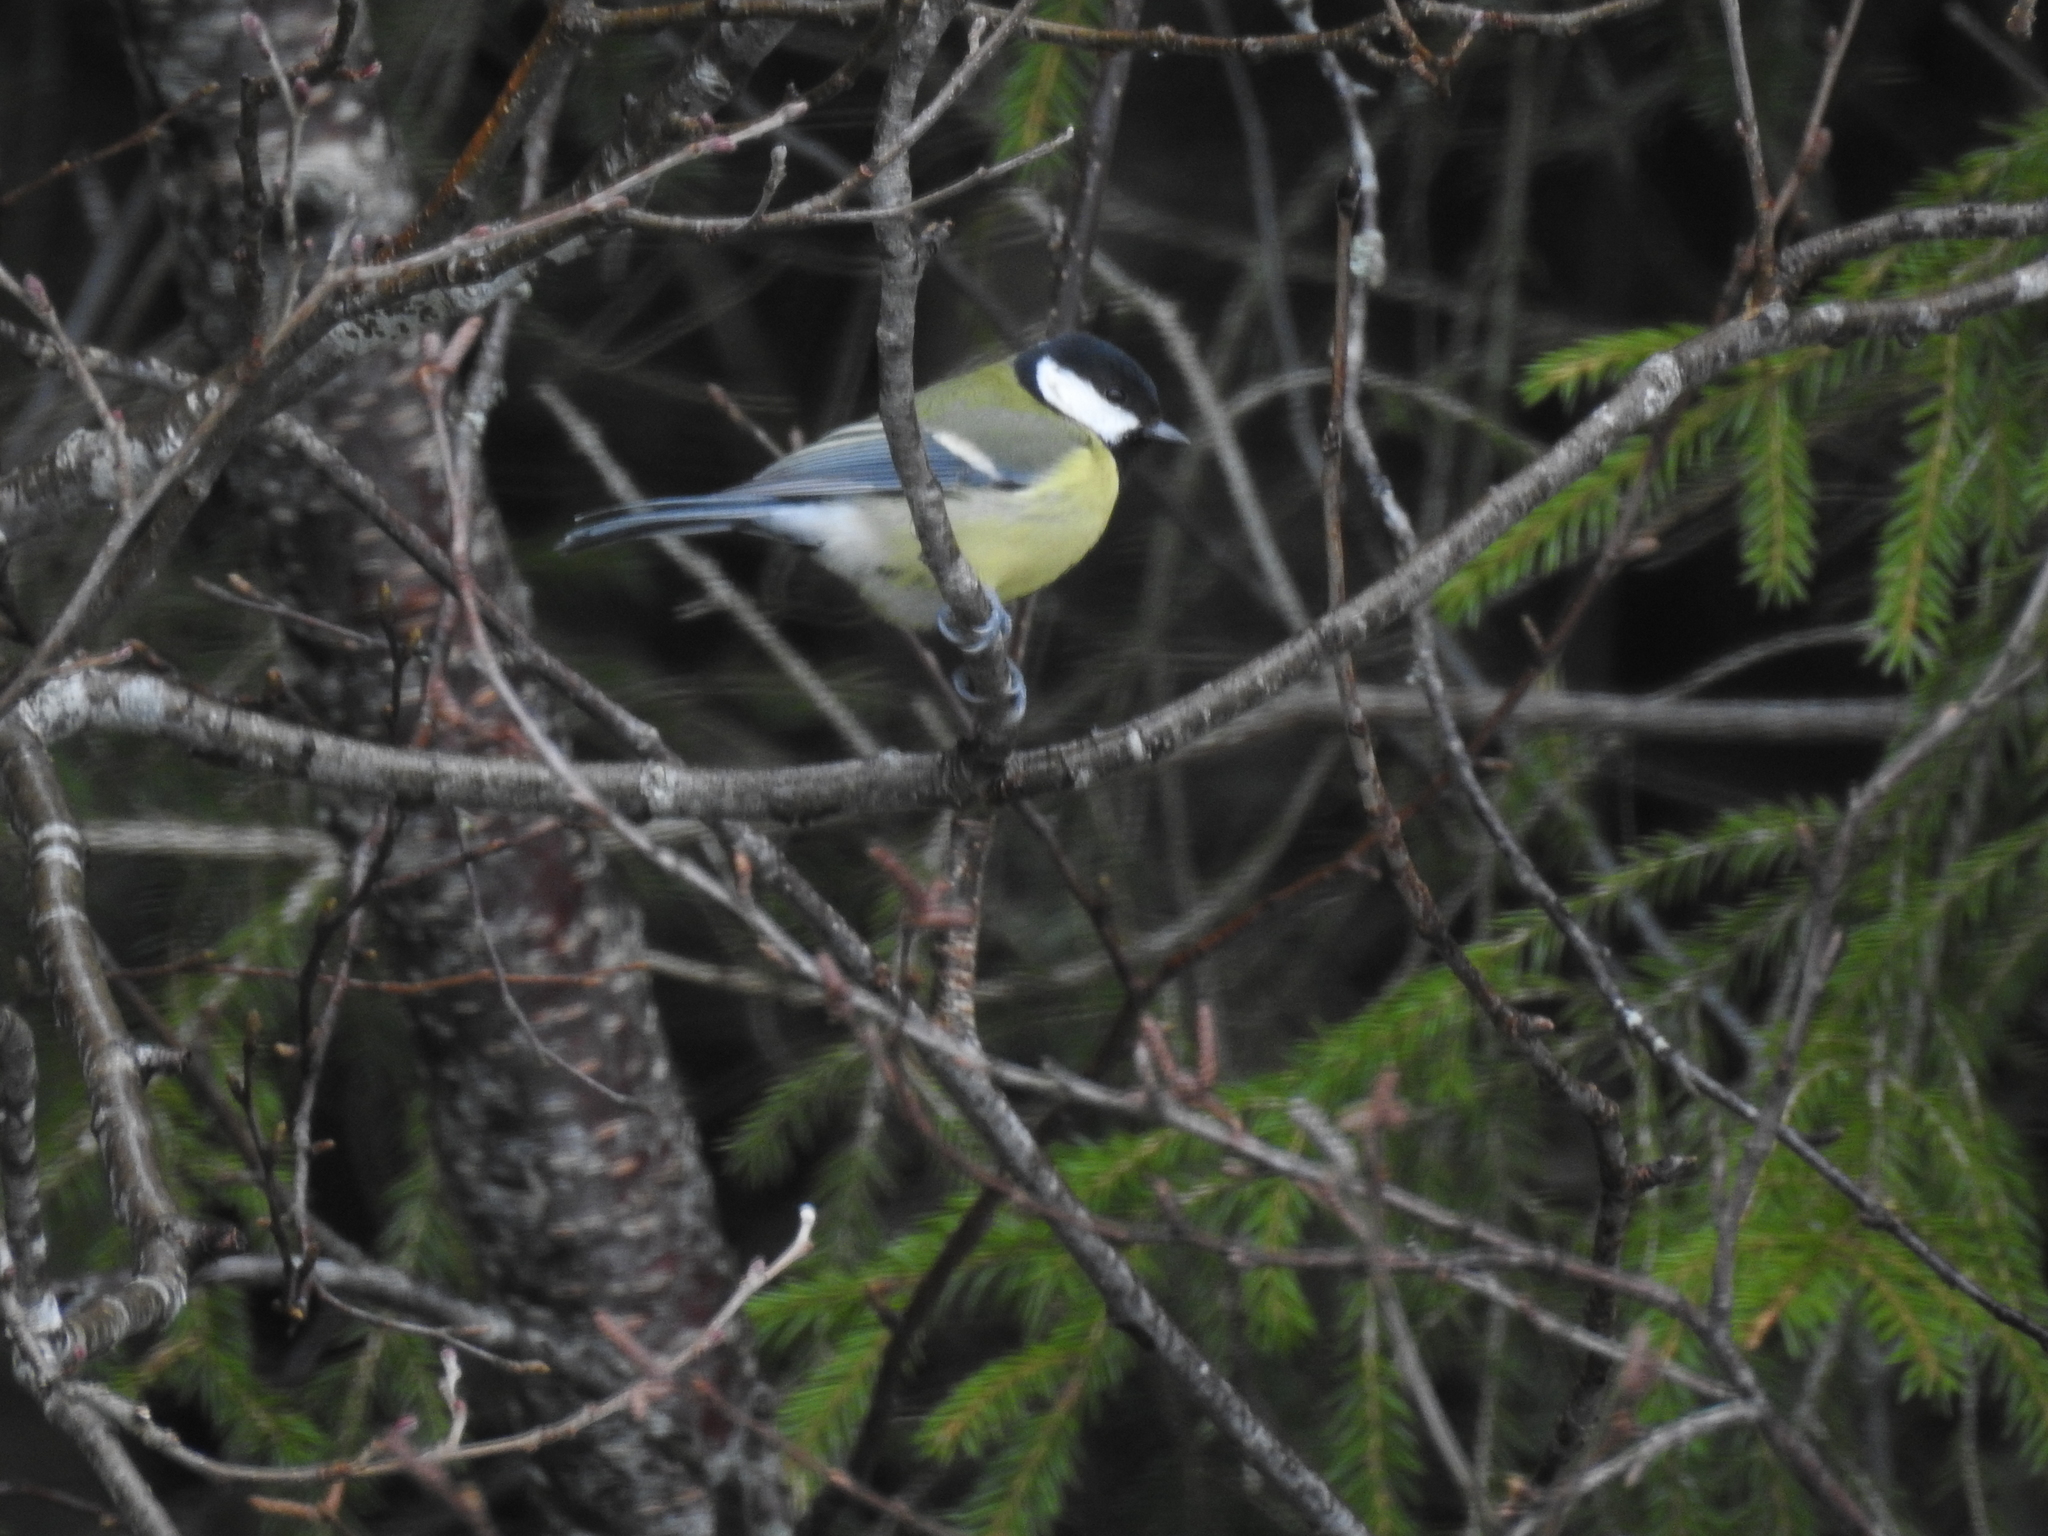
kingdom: Animalia
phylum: Chordata
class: Aves
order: Passeriformes
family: Paridae
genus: Parus
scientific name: Parus major
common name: Great tit
